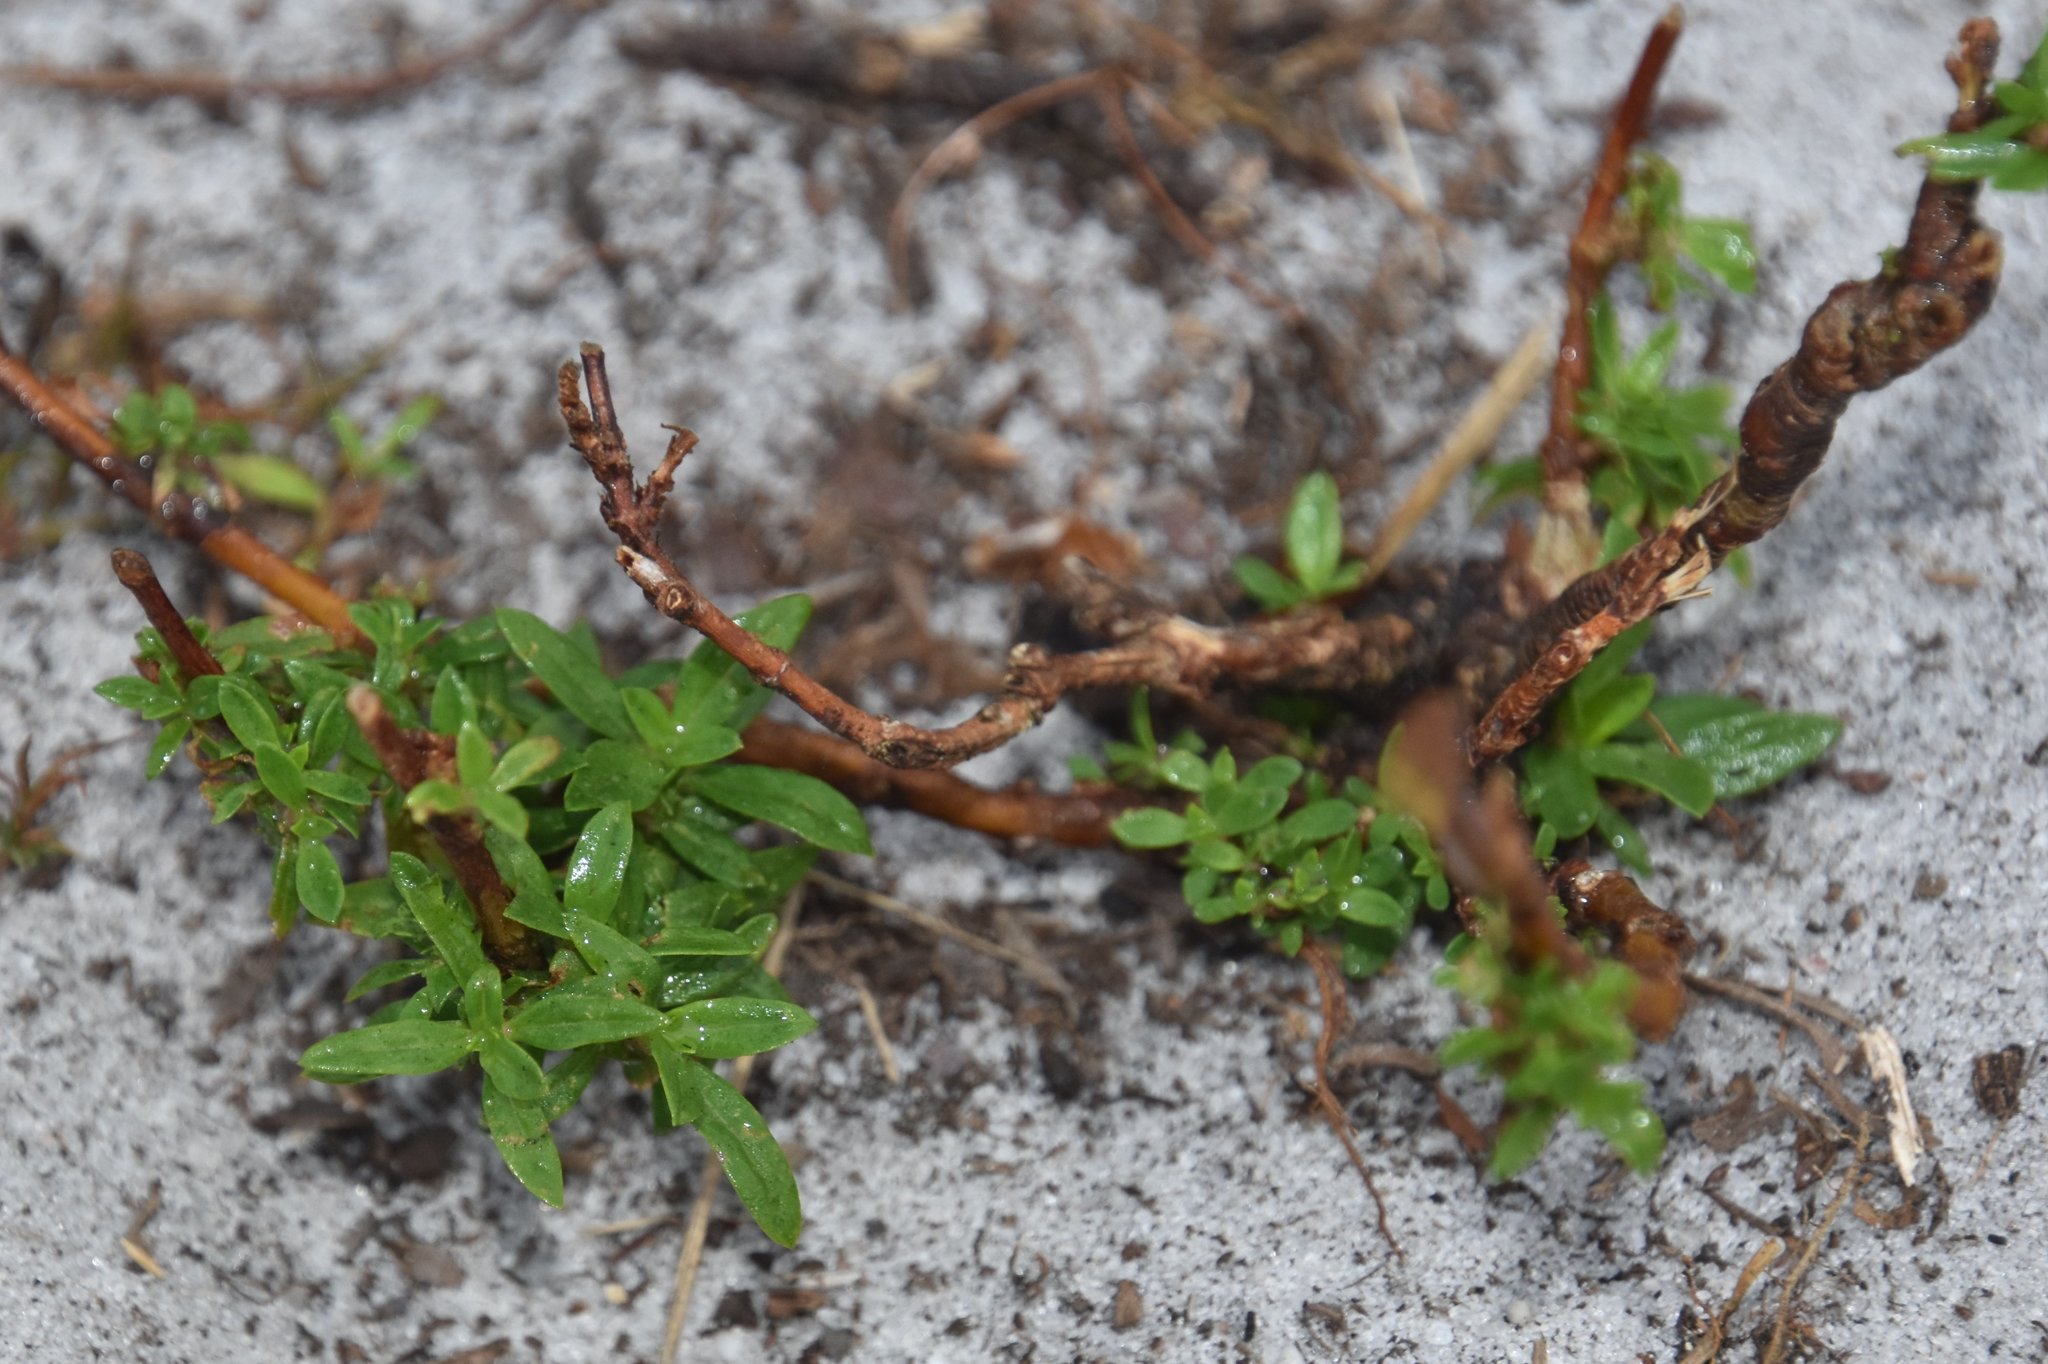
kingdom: Plantae
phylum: Tracheophyta
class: Magnoliopsida
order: Gentianales
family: Rubiaceae
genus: Spermacoce
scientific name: Spermacoce verticillata
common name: Shrubby false buttonweed
